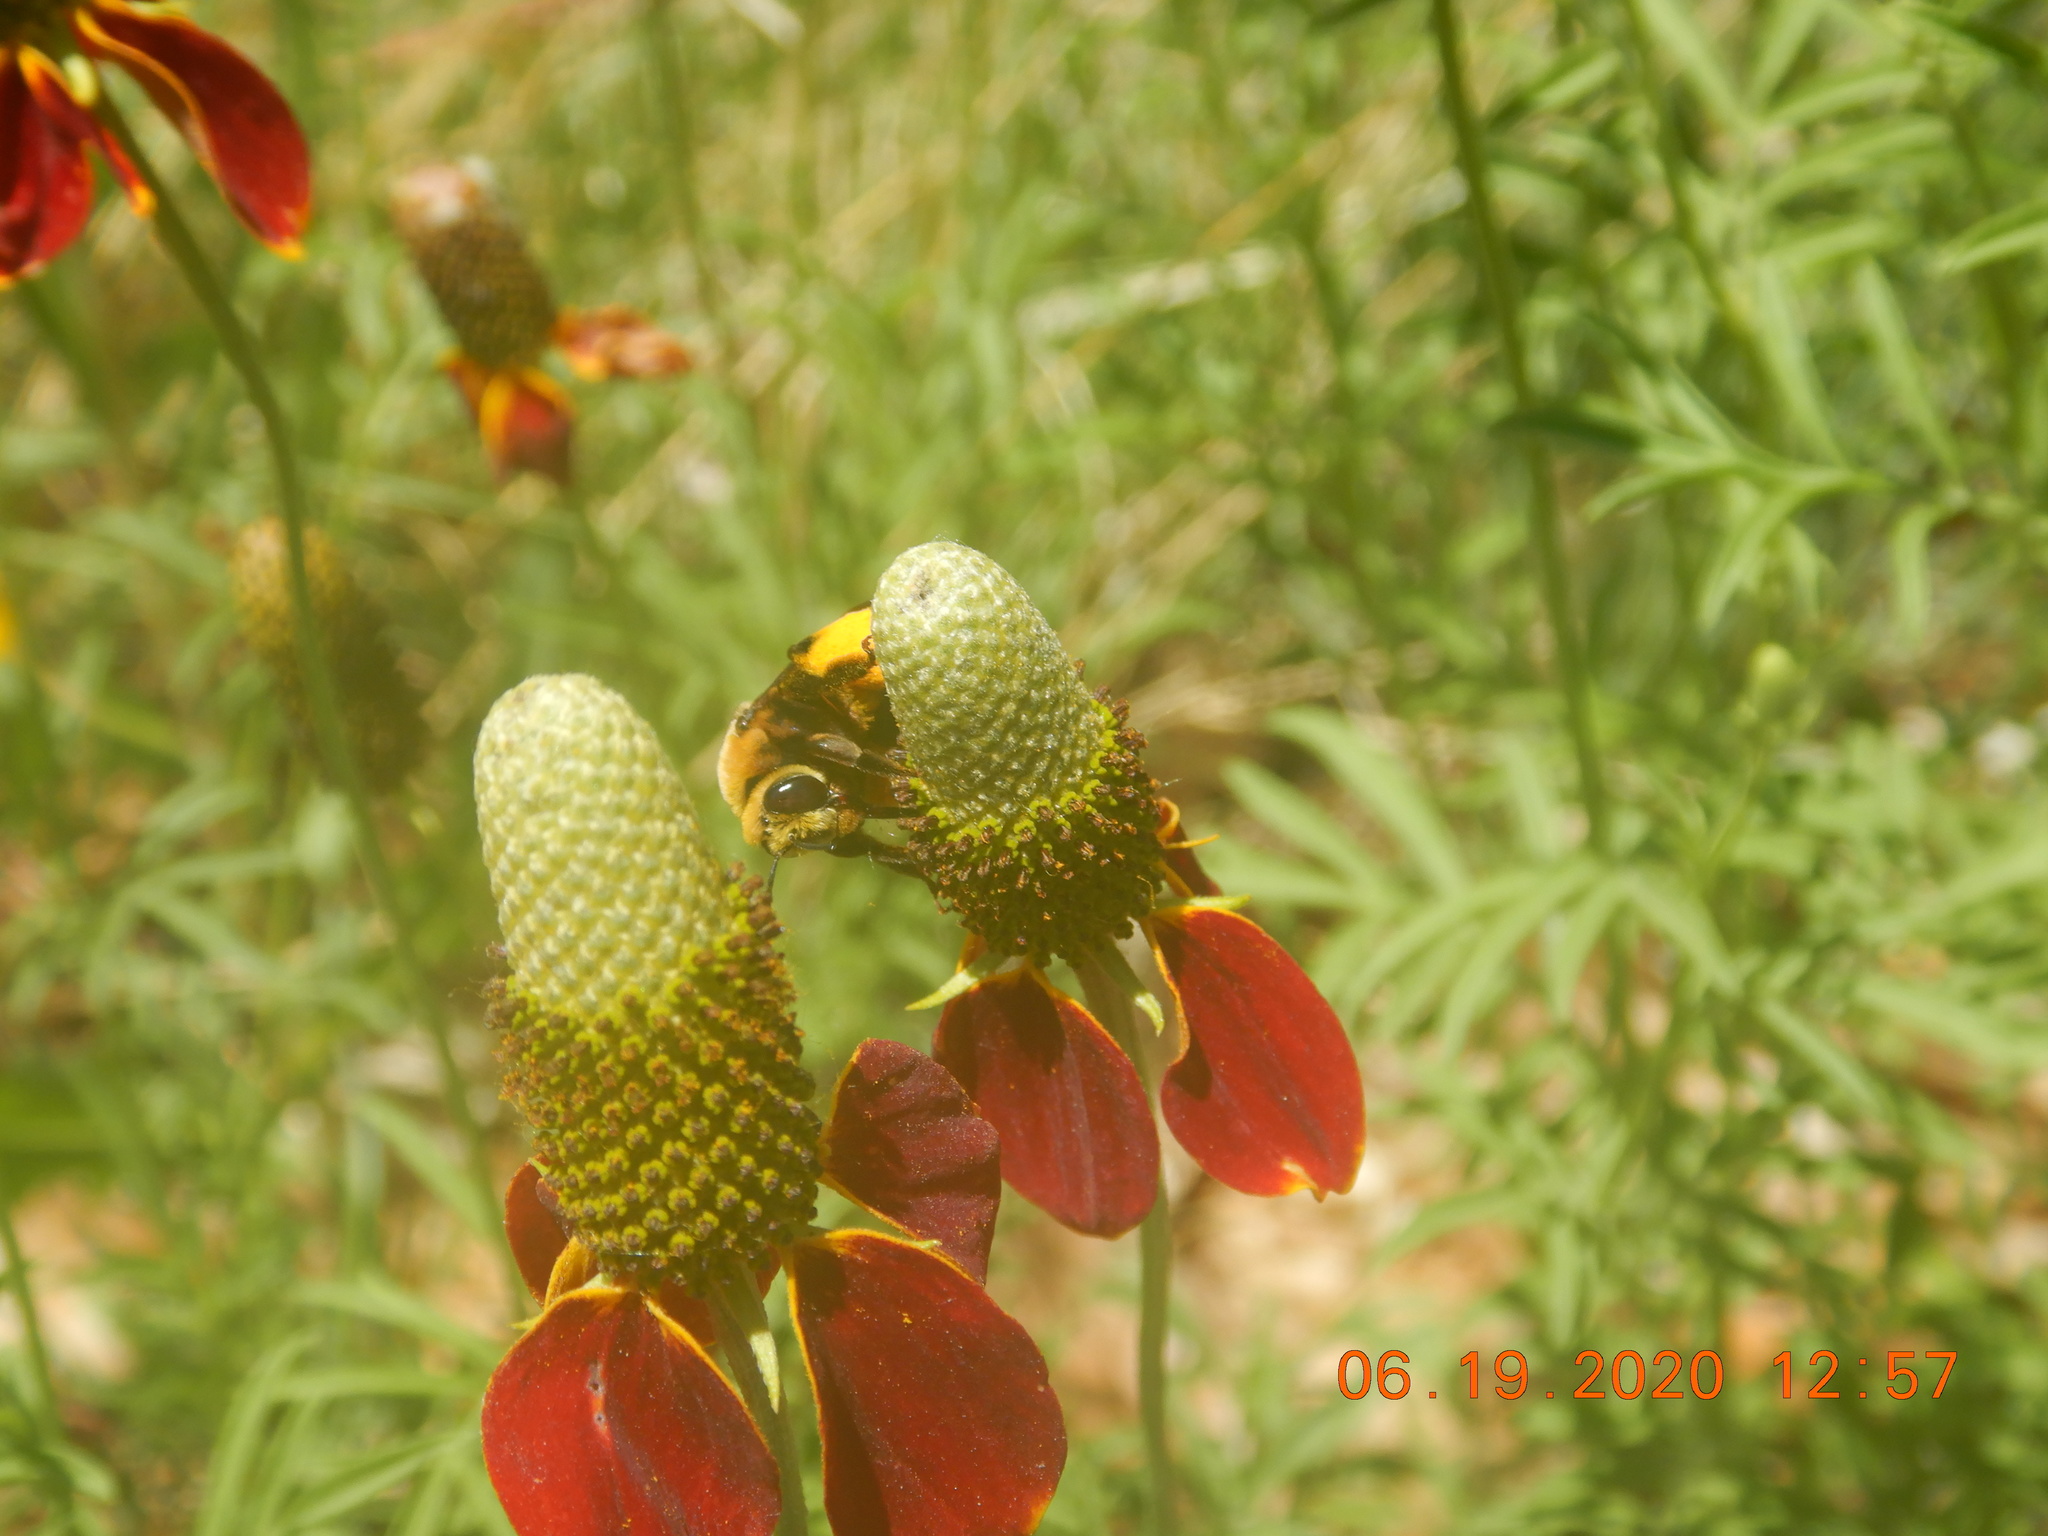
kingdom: Animalia
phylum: Arthropoda
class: Insecta
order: Hymenoptera
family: Apidae
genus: Svastra
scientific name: Svastra obliqua
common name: Oblique longhorn
